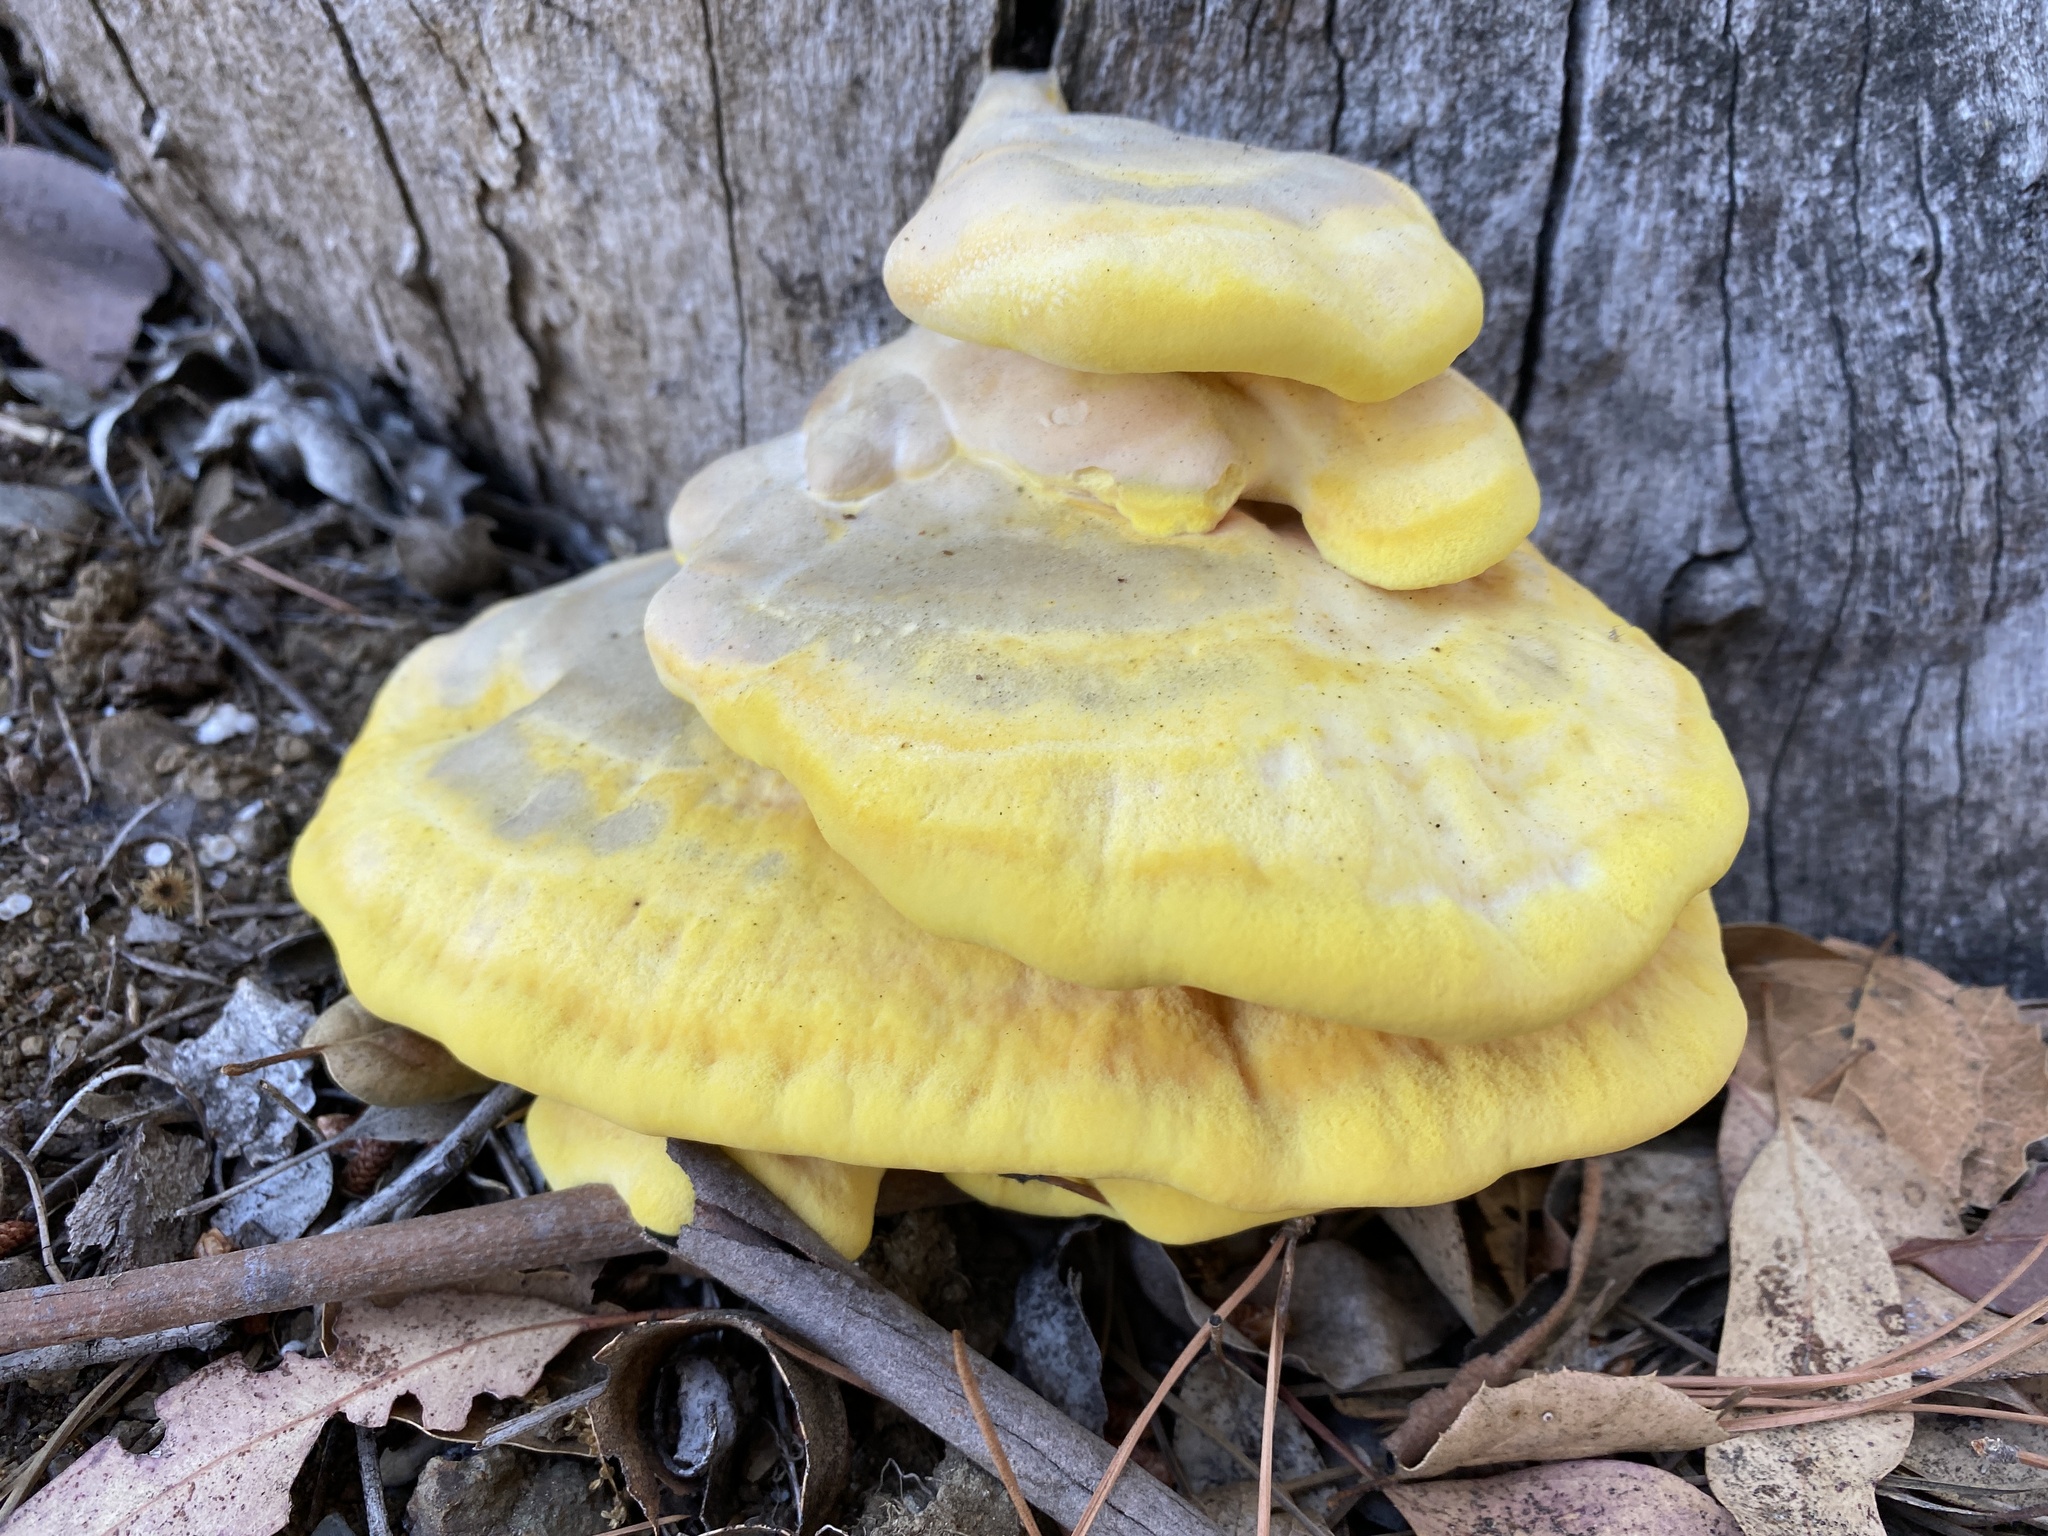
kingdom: Fungi
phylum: Basidiomycota
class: Agaricomycetes
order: Polyporales
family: Laetiporaceae
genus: Laetiporus
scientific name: Laetiporus gilbertsonii
